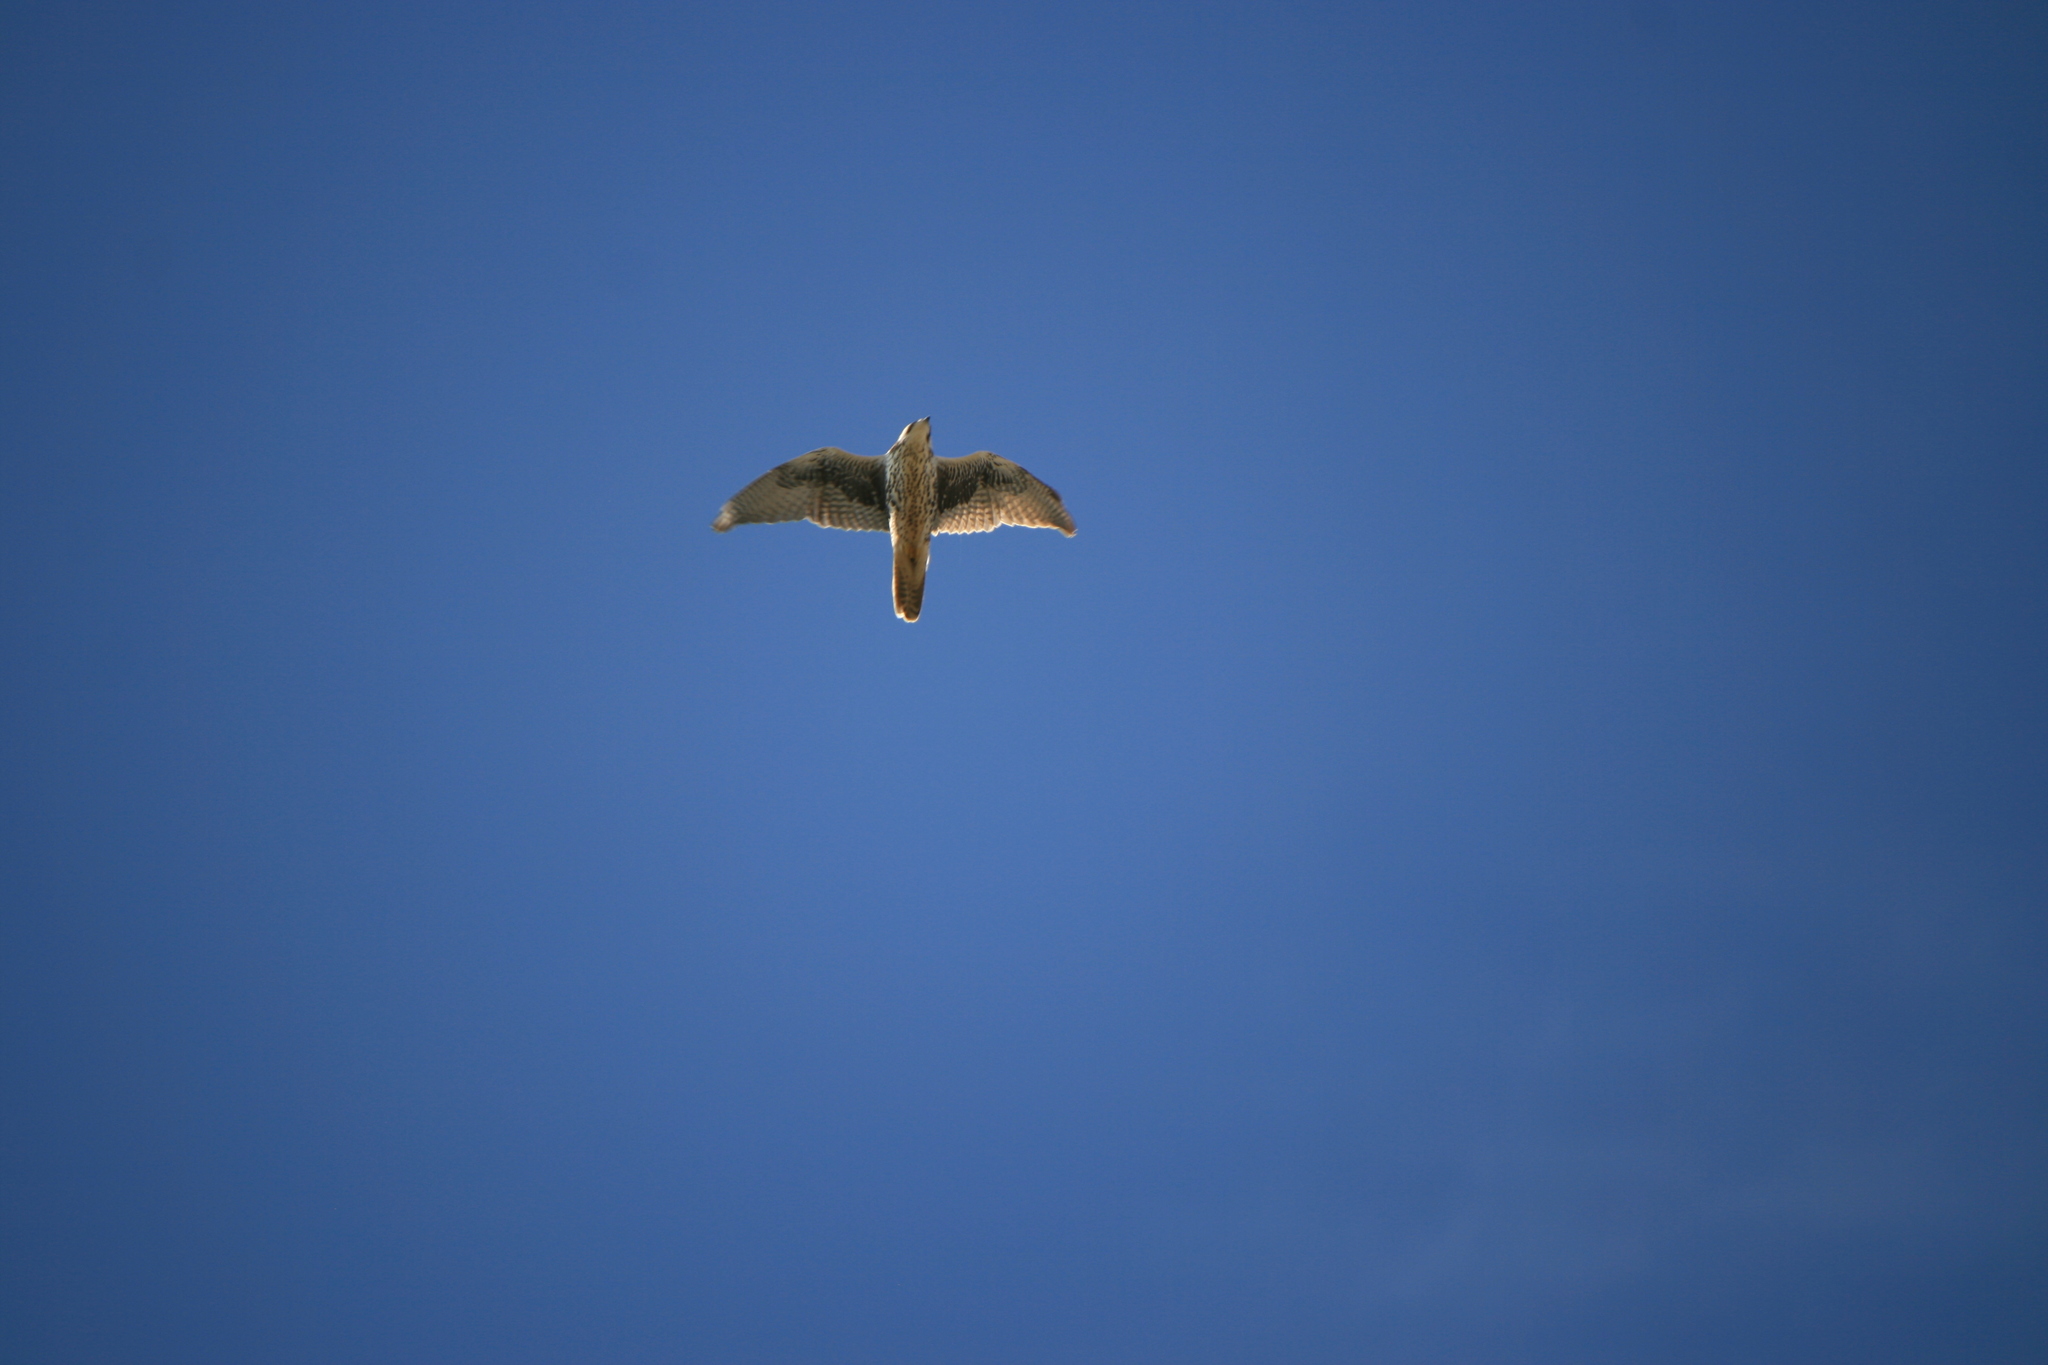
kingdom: Animalia
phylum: Chordata
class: Aves
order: Falconiformes
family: Falconidae
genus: Falco
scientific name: Falco mexicanus
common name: Prairie falcon
